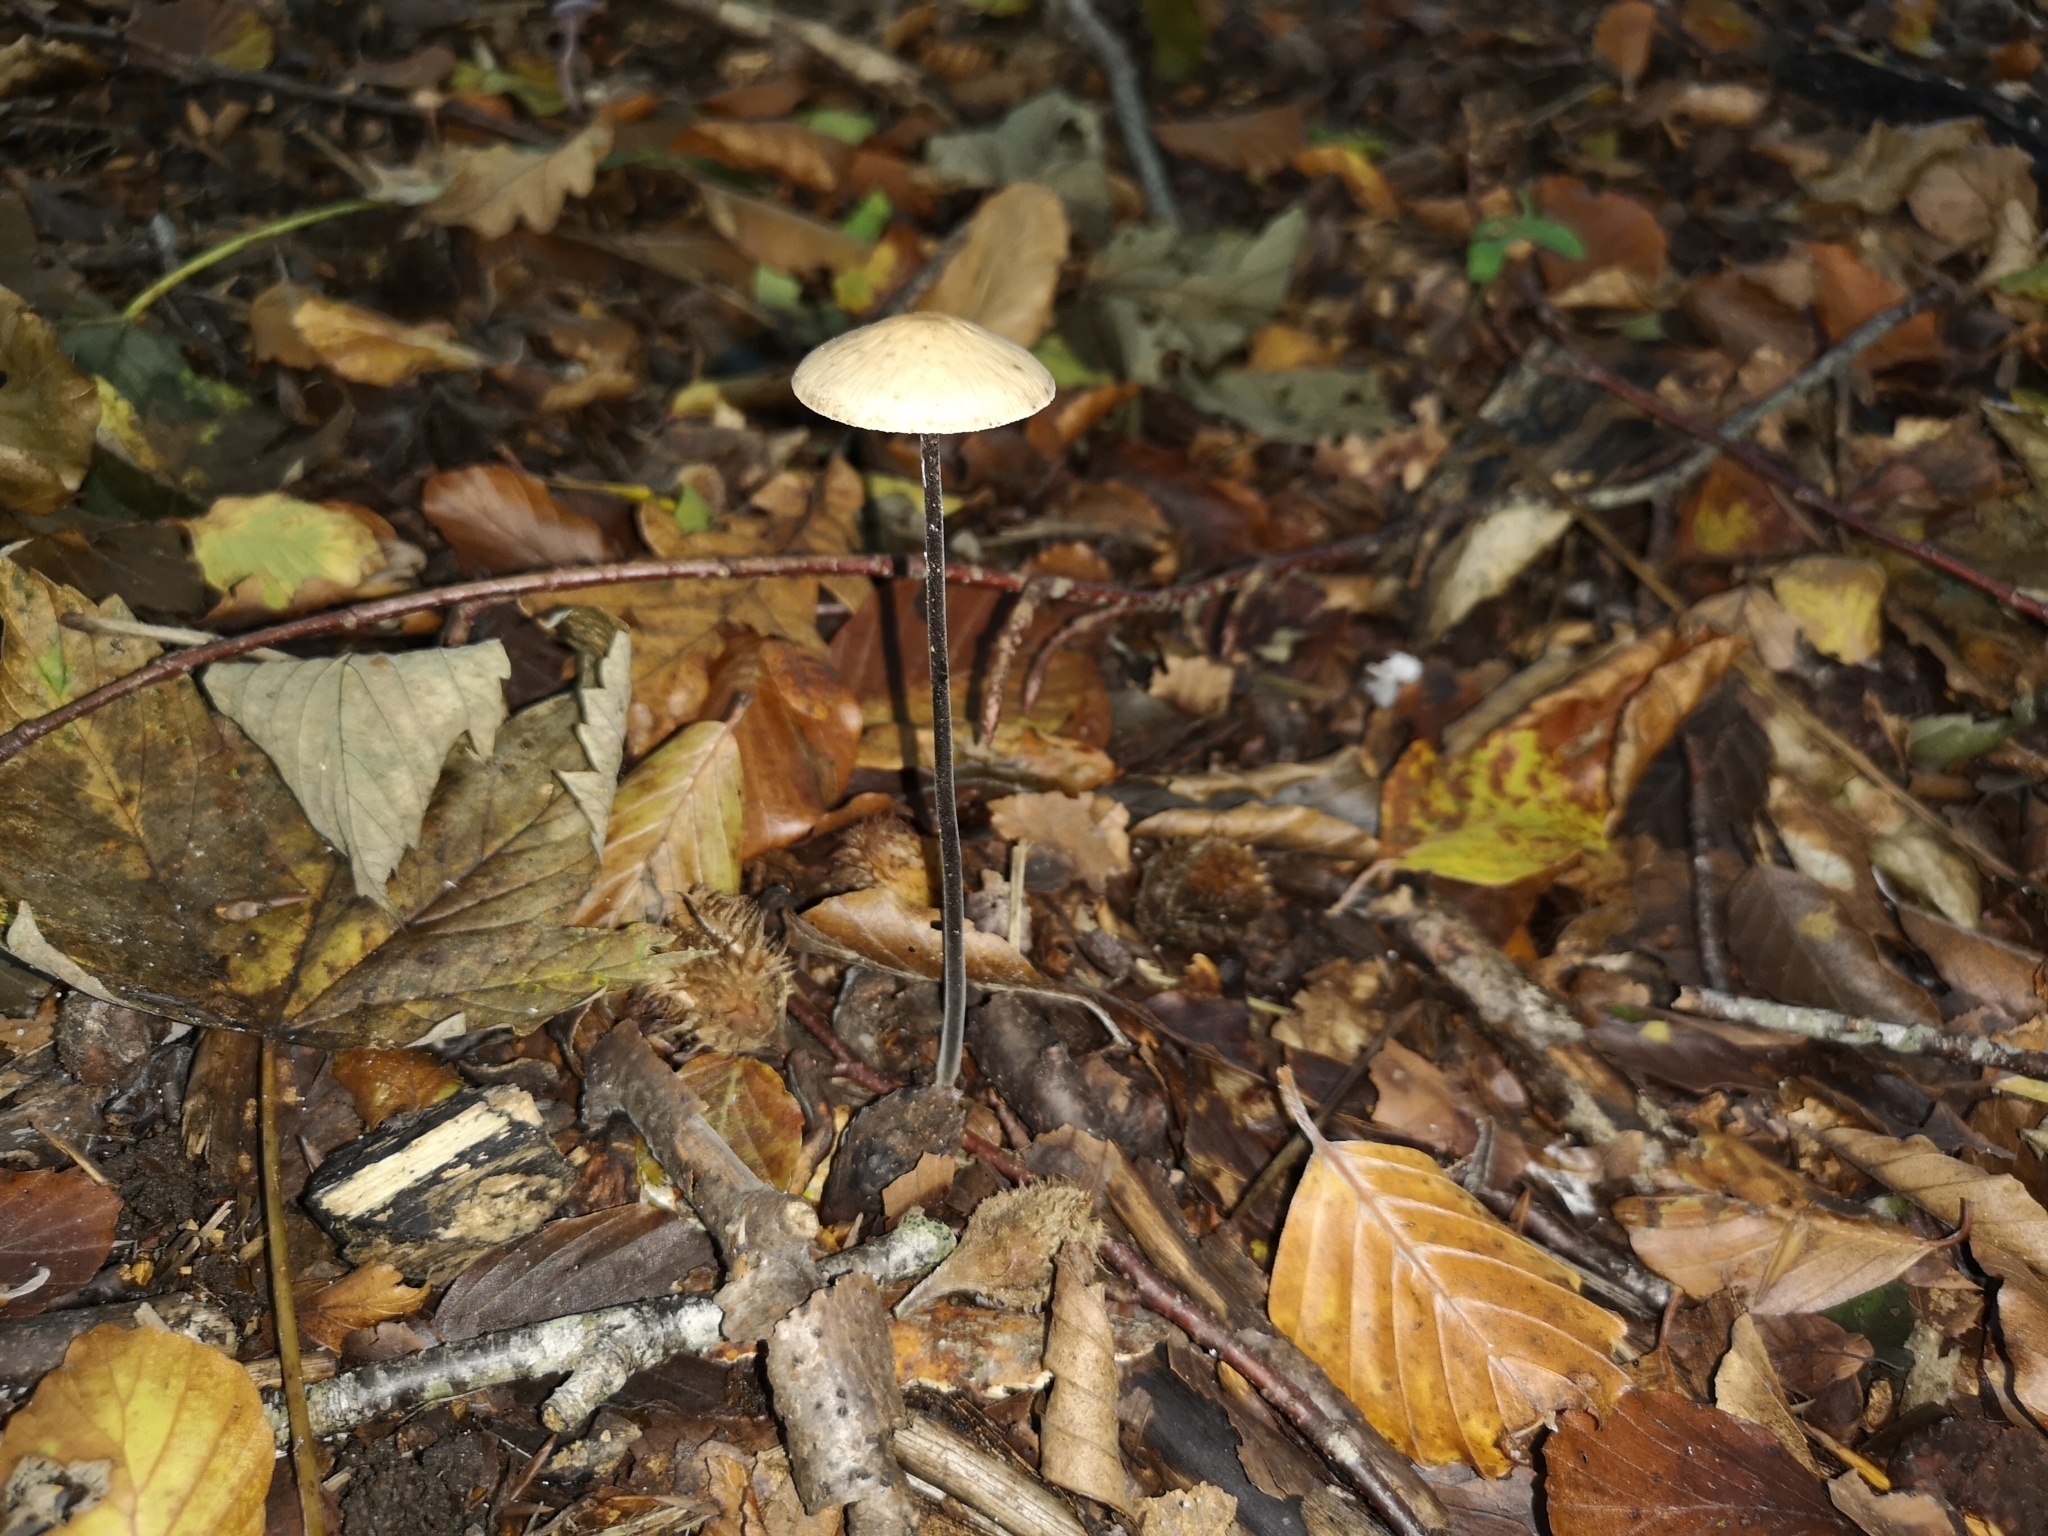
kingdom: Fungi
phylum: Basidiomycota
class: Agaricomycetes
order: Agaricales
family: Omphalotaceae
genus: Mycetinis
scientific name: Mycetinis alliaceus
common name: Garlic parachute
